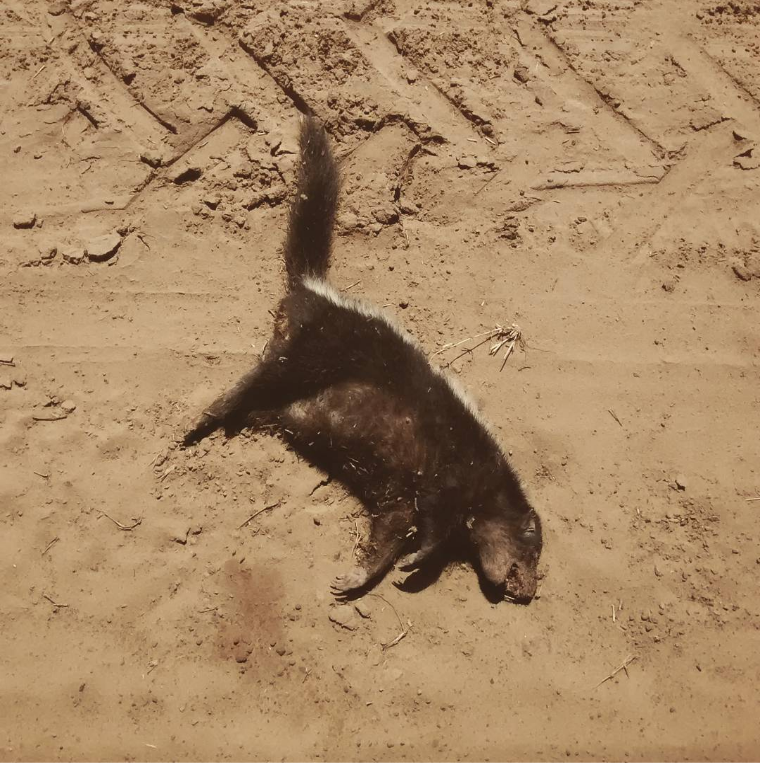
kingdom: Animalia
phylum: Chordata
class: Mammalia
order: Carnivora
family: Mephitidae
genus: Conepatus
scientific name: Conepatus chinga
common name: Molina's hog-nosed skunk
